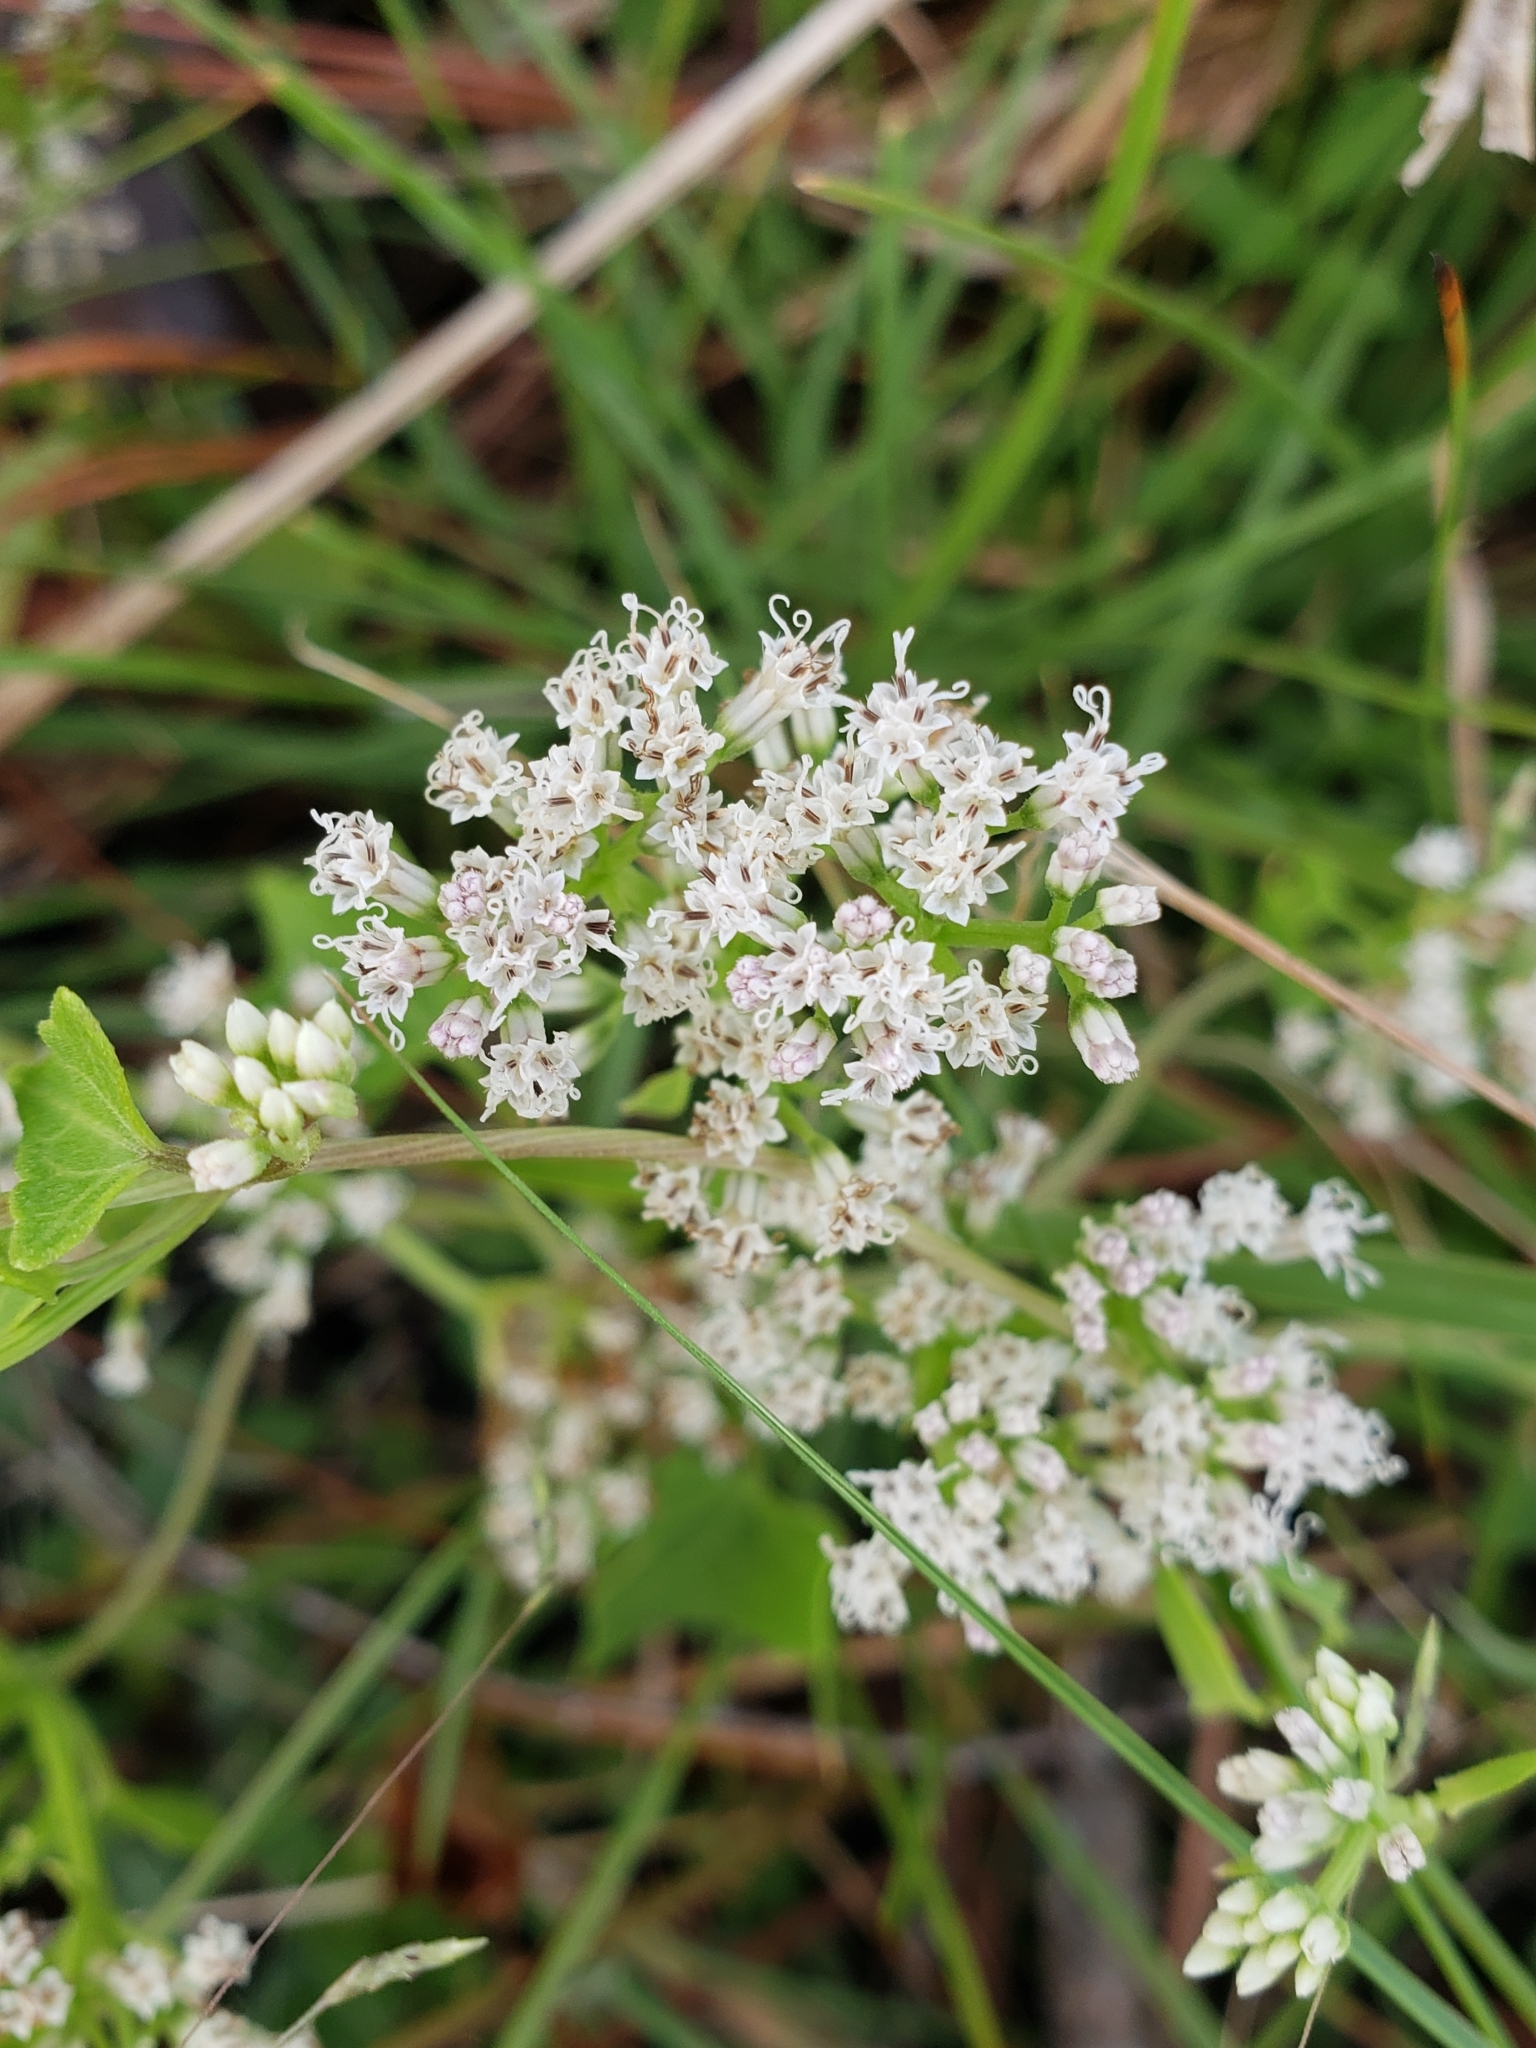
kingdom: Plantae
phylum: Tracheophyta
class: Magnoliopsida
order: Asterales
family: Asteraceae
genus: Mikania
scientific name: Mikania scandens
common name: Climbing hempvine
